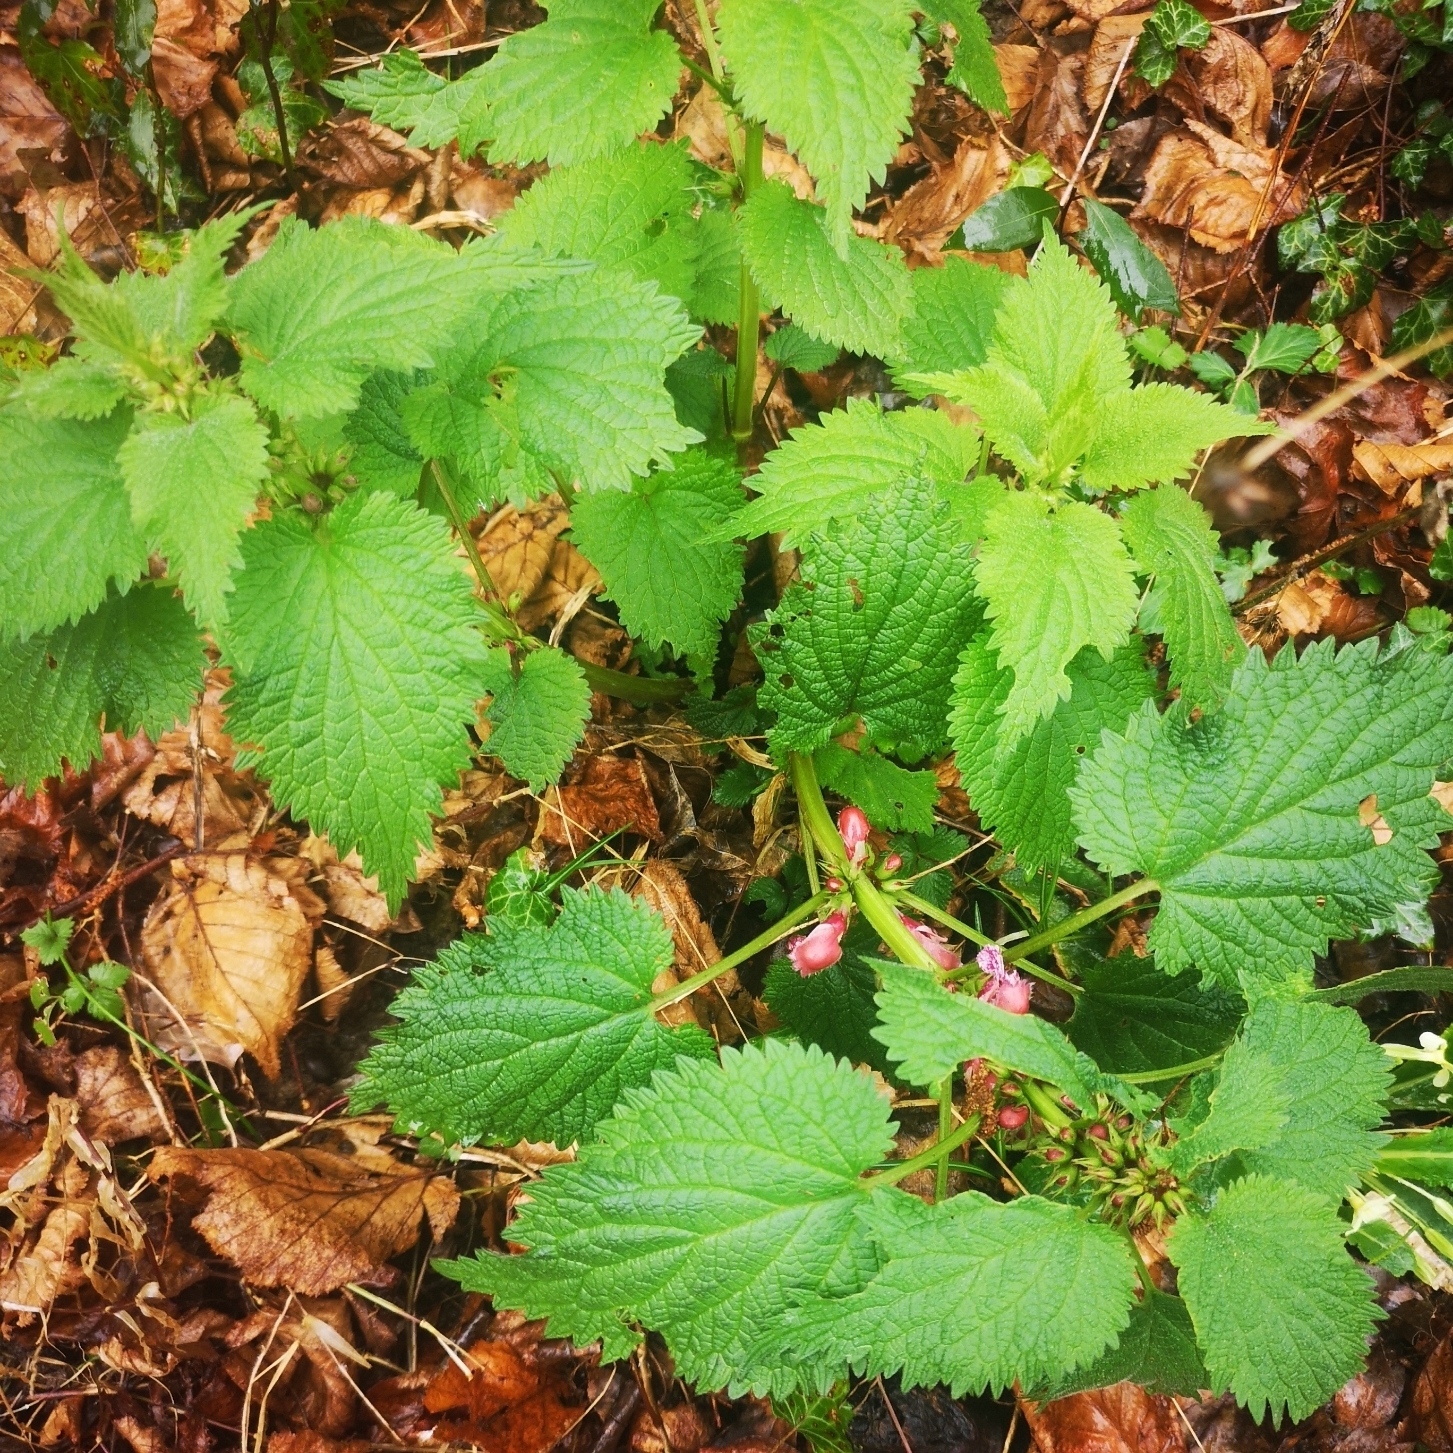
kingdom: Plantae
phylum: Tracheophyta
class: Magnoliopsida
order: Lamiales
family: Lamiaceae
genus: Lamium
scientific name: Lamium orvala
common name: Balm-leaved archangel
